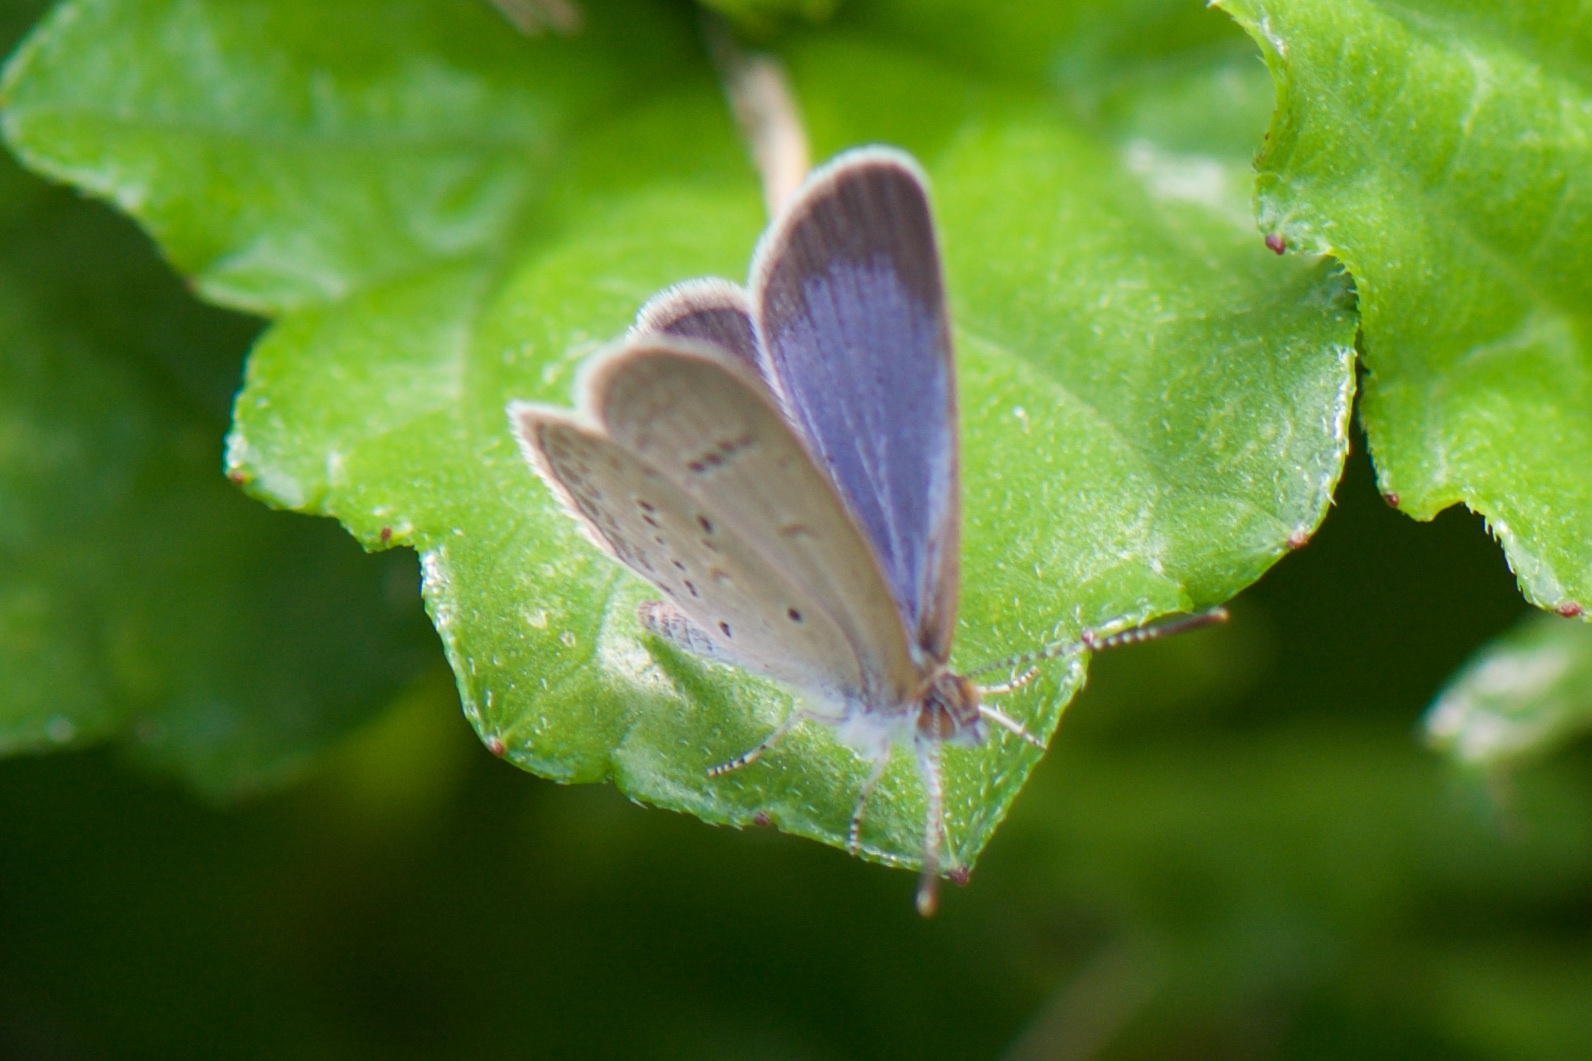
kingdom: Animalia
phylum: Arthropoda
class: Insecta
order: Lepidoptera
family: Lycaenidae
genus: Zizina
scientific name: Zizina otis
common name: Lesser grass blue
